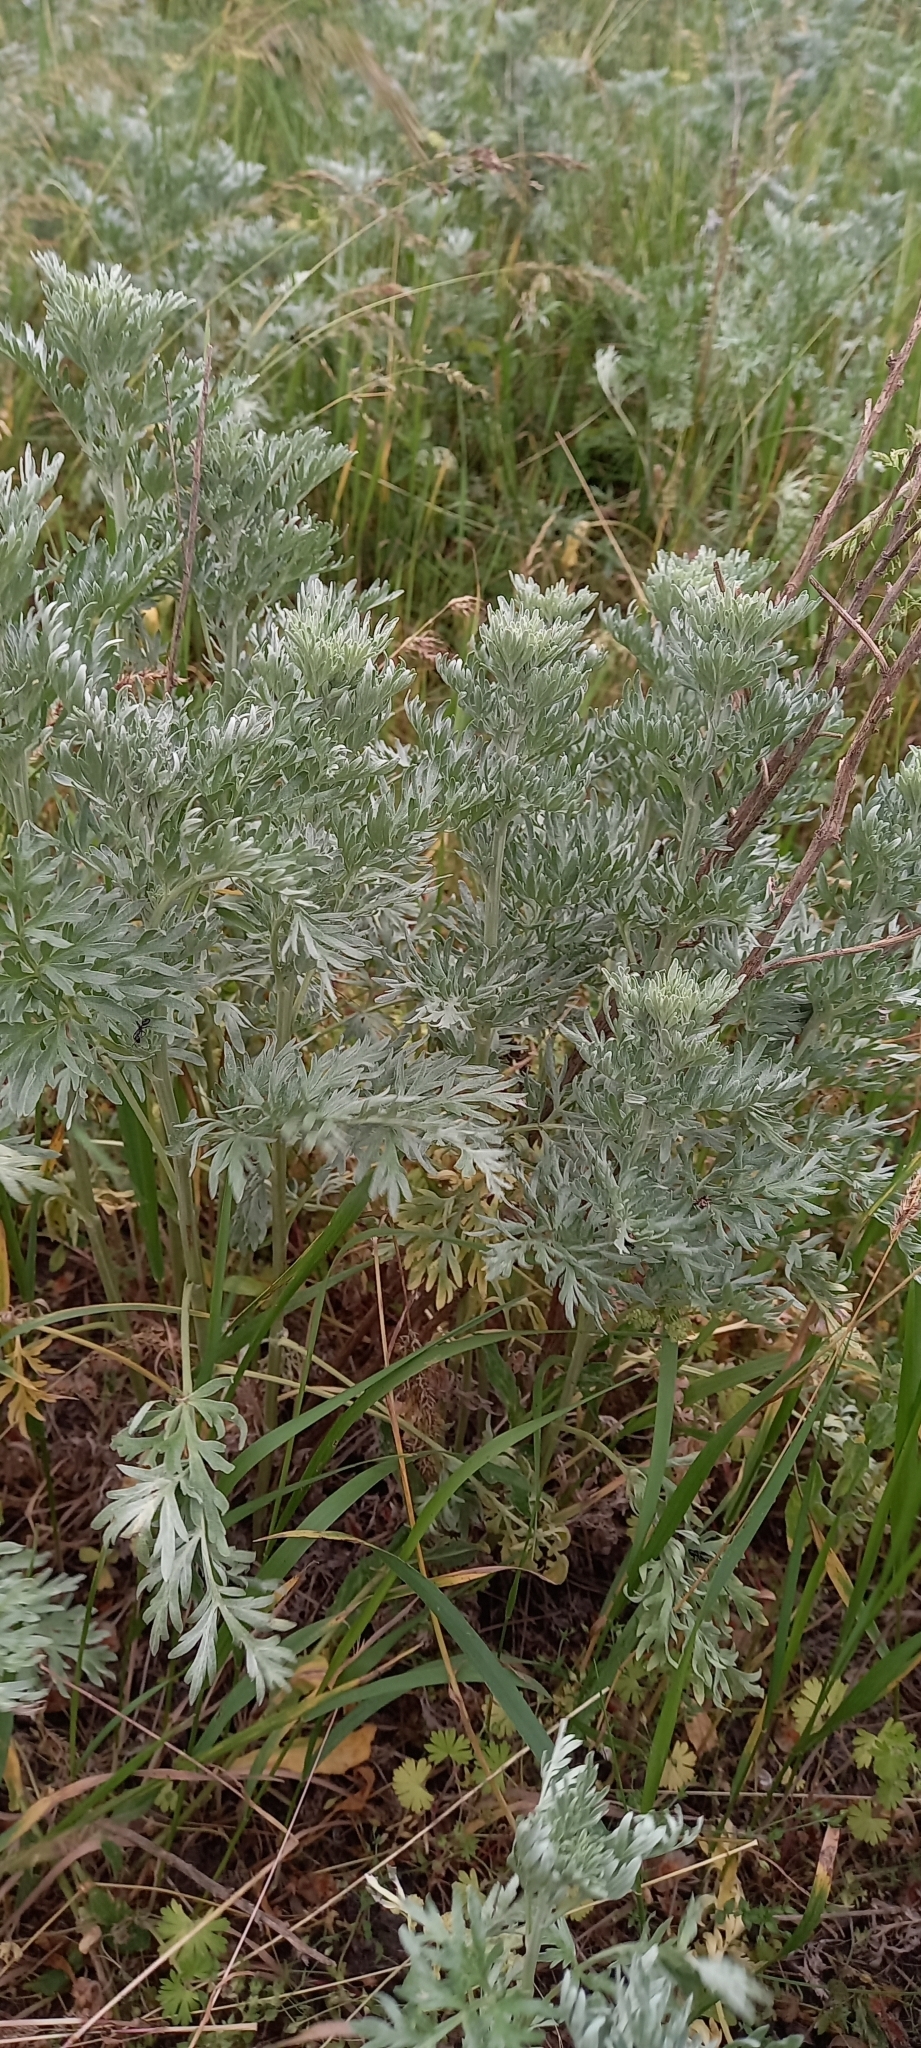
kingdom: Plantae
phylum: Tracheophyta
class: Magnoliopsida
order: Asterales
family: Asteraceae
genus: Artemisia
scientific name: Artemisia absinthium
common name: Wormwood
